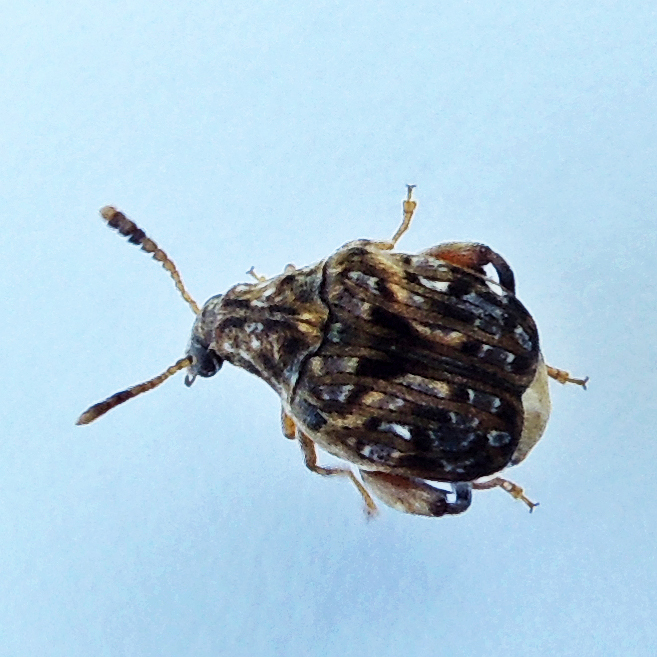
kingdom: Animalia
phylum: Arthropoda
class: Insecta
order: Coleoptera
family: Chrysomelidae
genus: Gibbobruchus
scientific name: Gibbobruchus mimus
